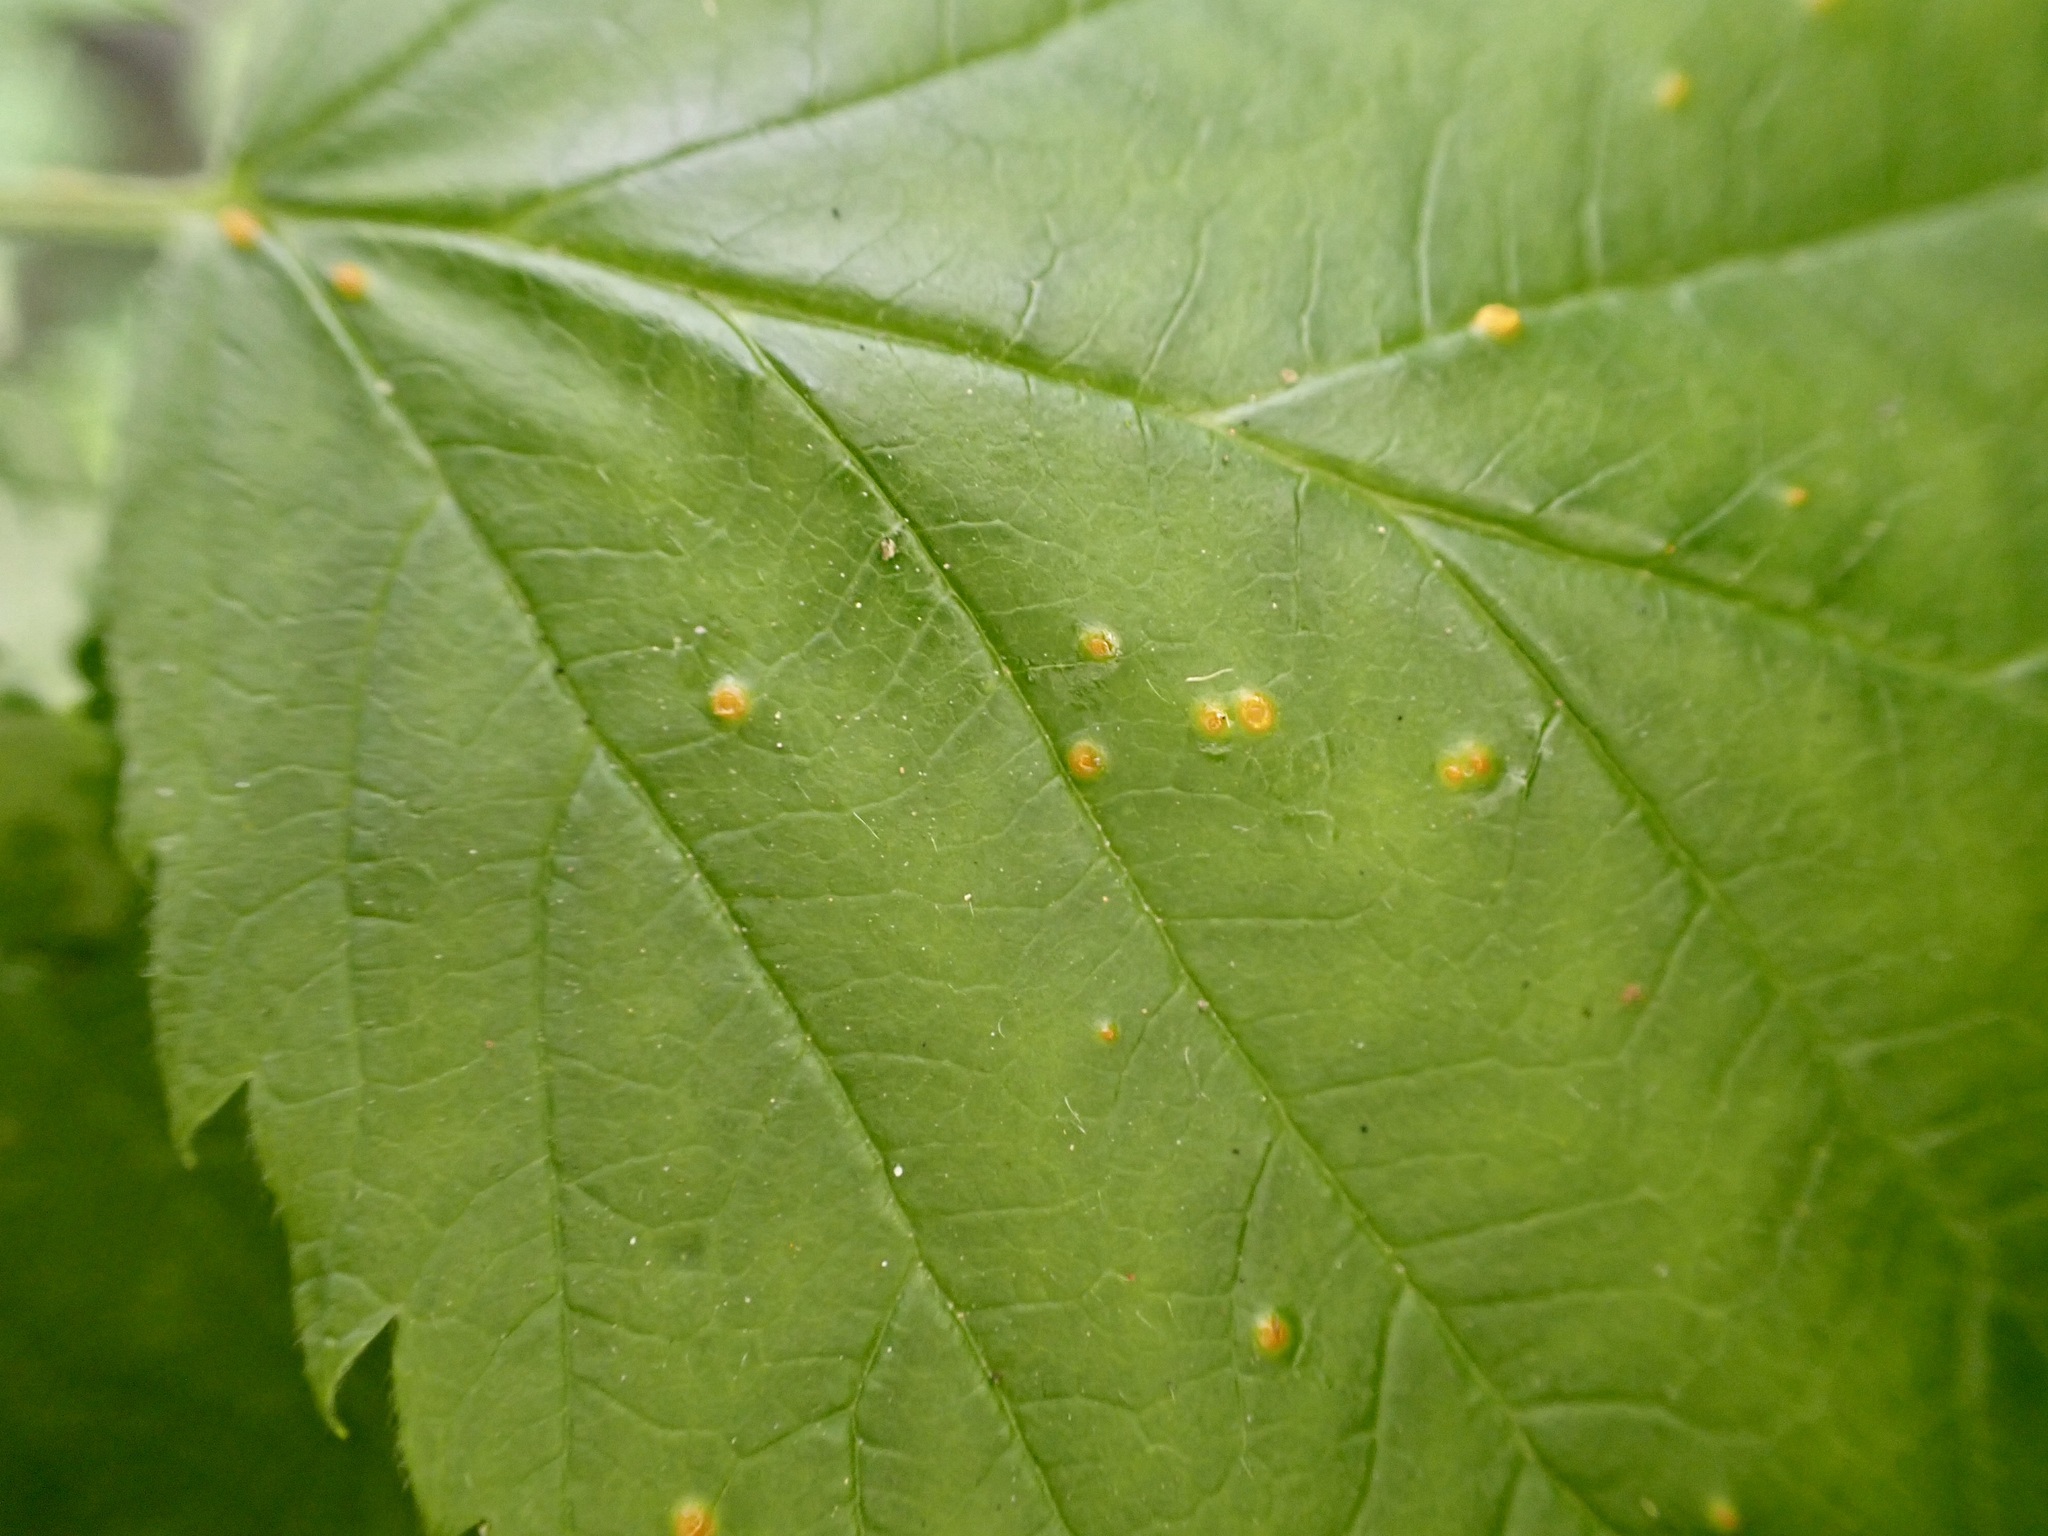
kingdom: Fungi
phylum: Basidiomycota
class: Pucciniomycetes
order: Pucciniales
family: Phragmidiaceae
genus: Phragmidium
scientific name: Phragmidium rubi-idaei
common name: Raspberry rust
